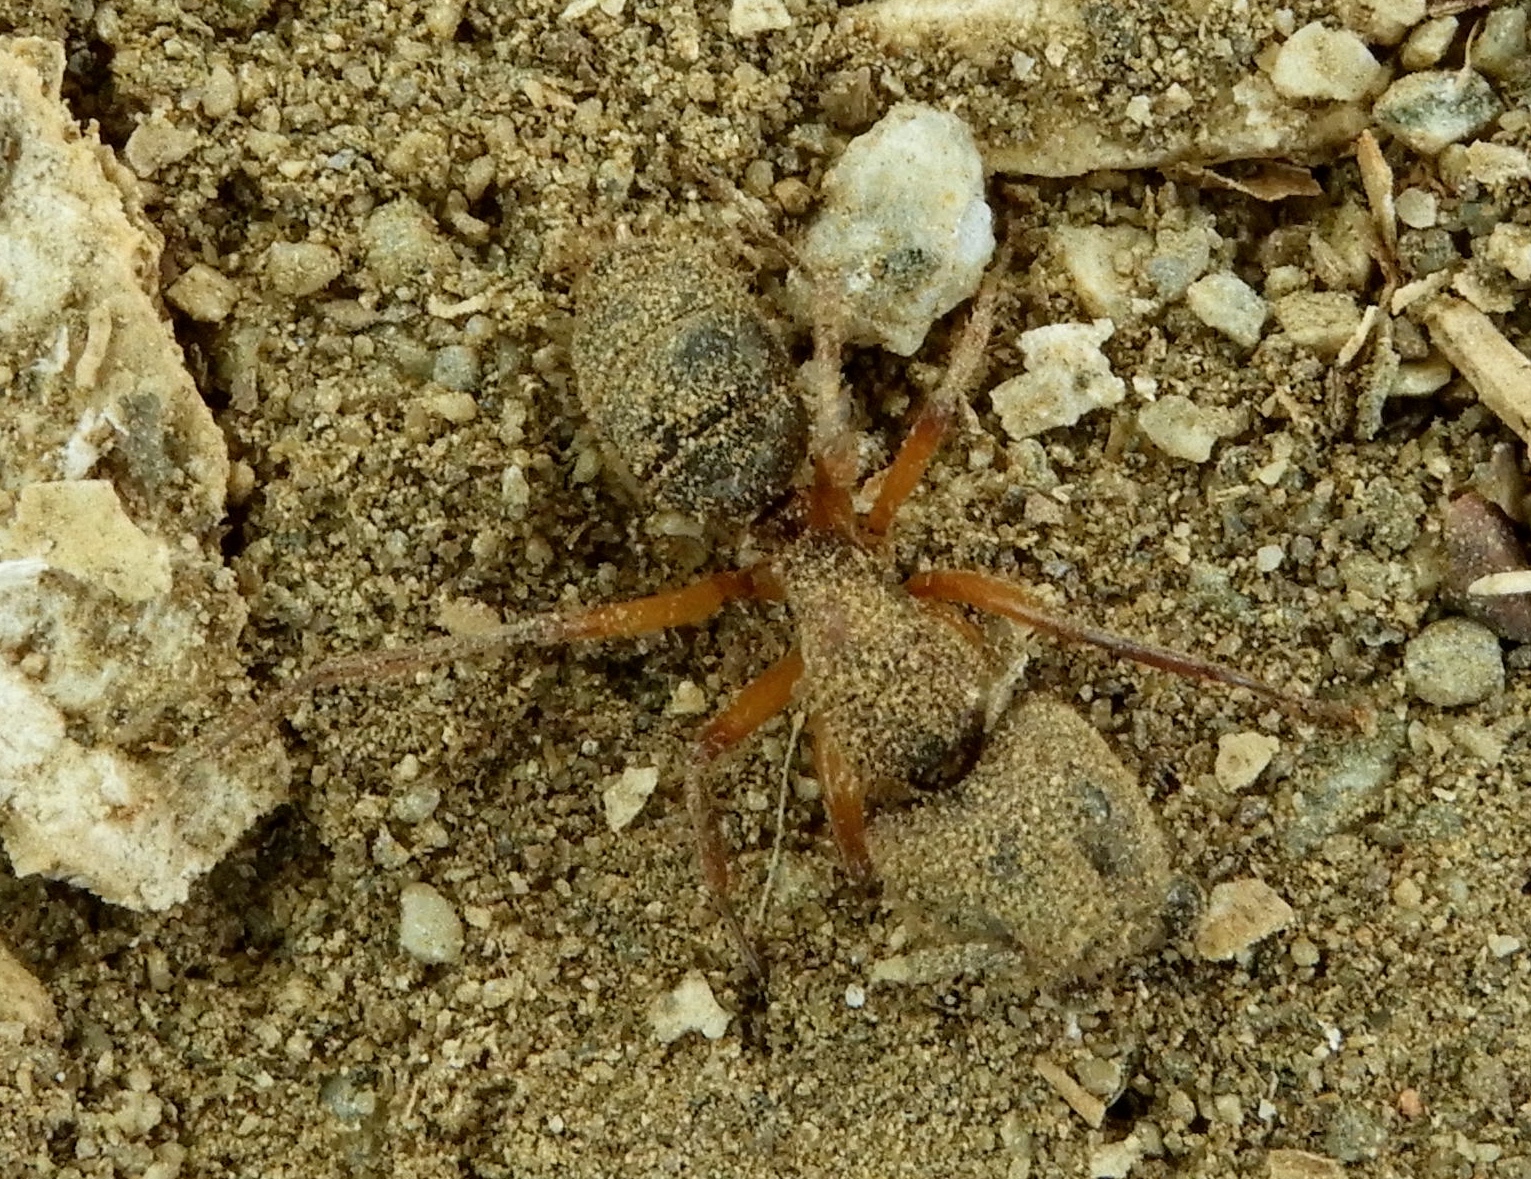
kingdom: Animalia
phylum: Arthropoda
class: Insecta
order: Hymenoptera
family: Formicidae
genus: Camponotus
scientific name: Camponotus
